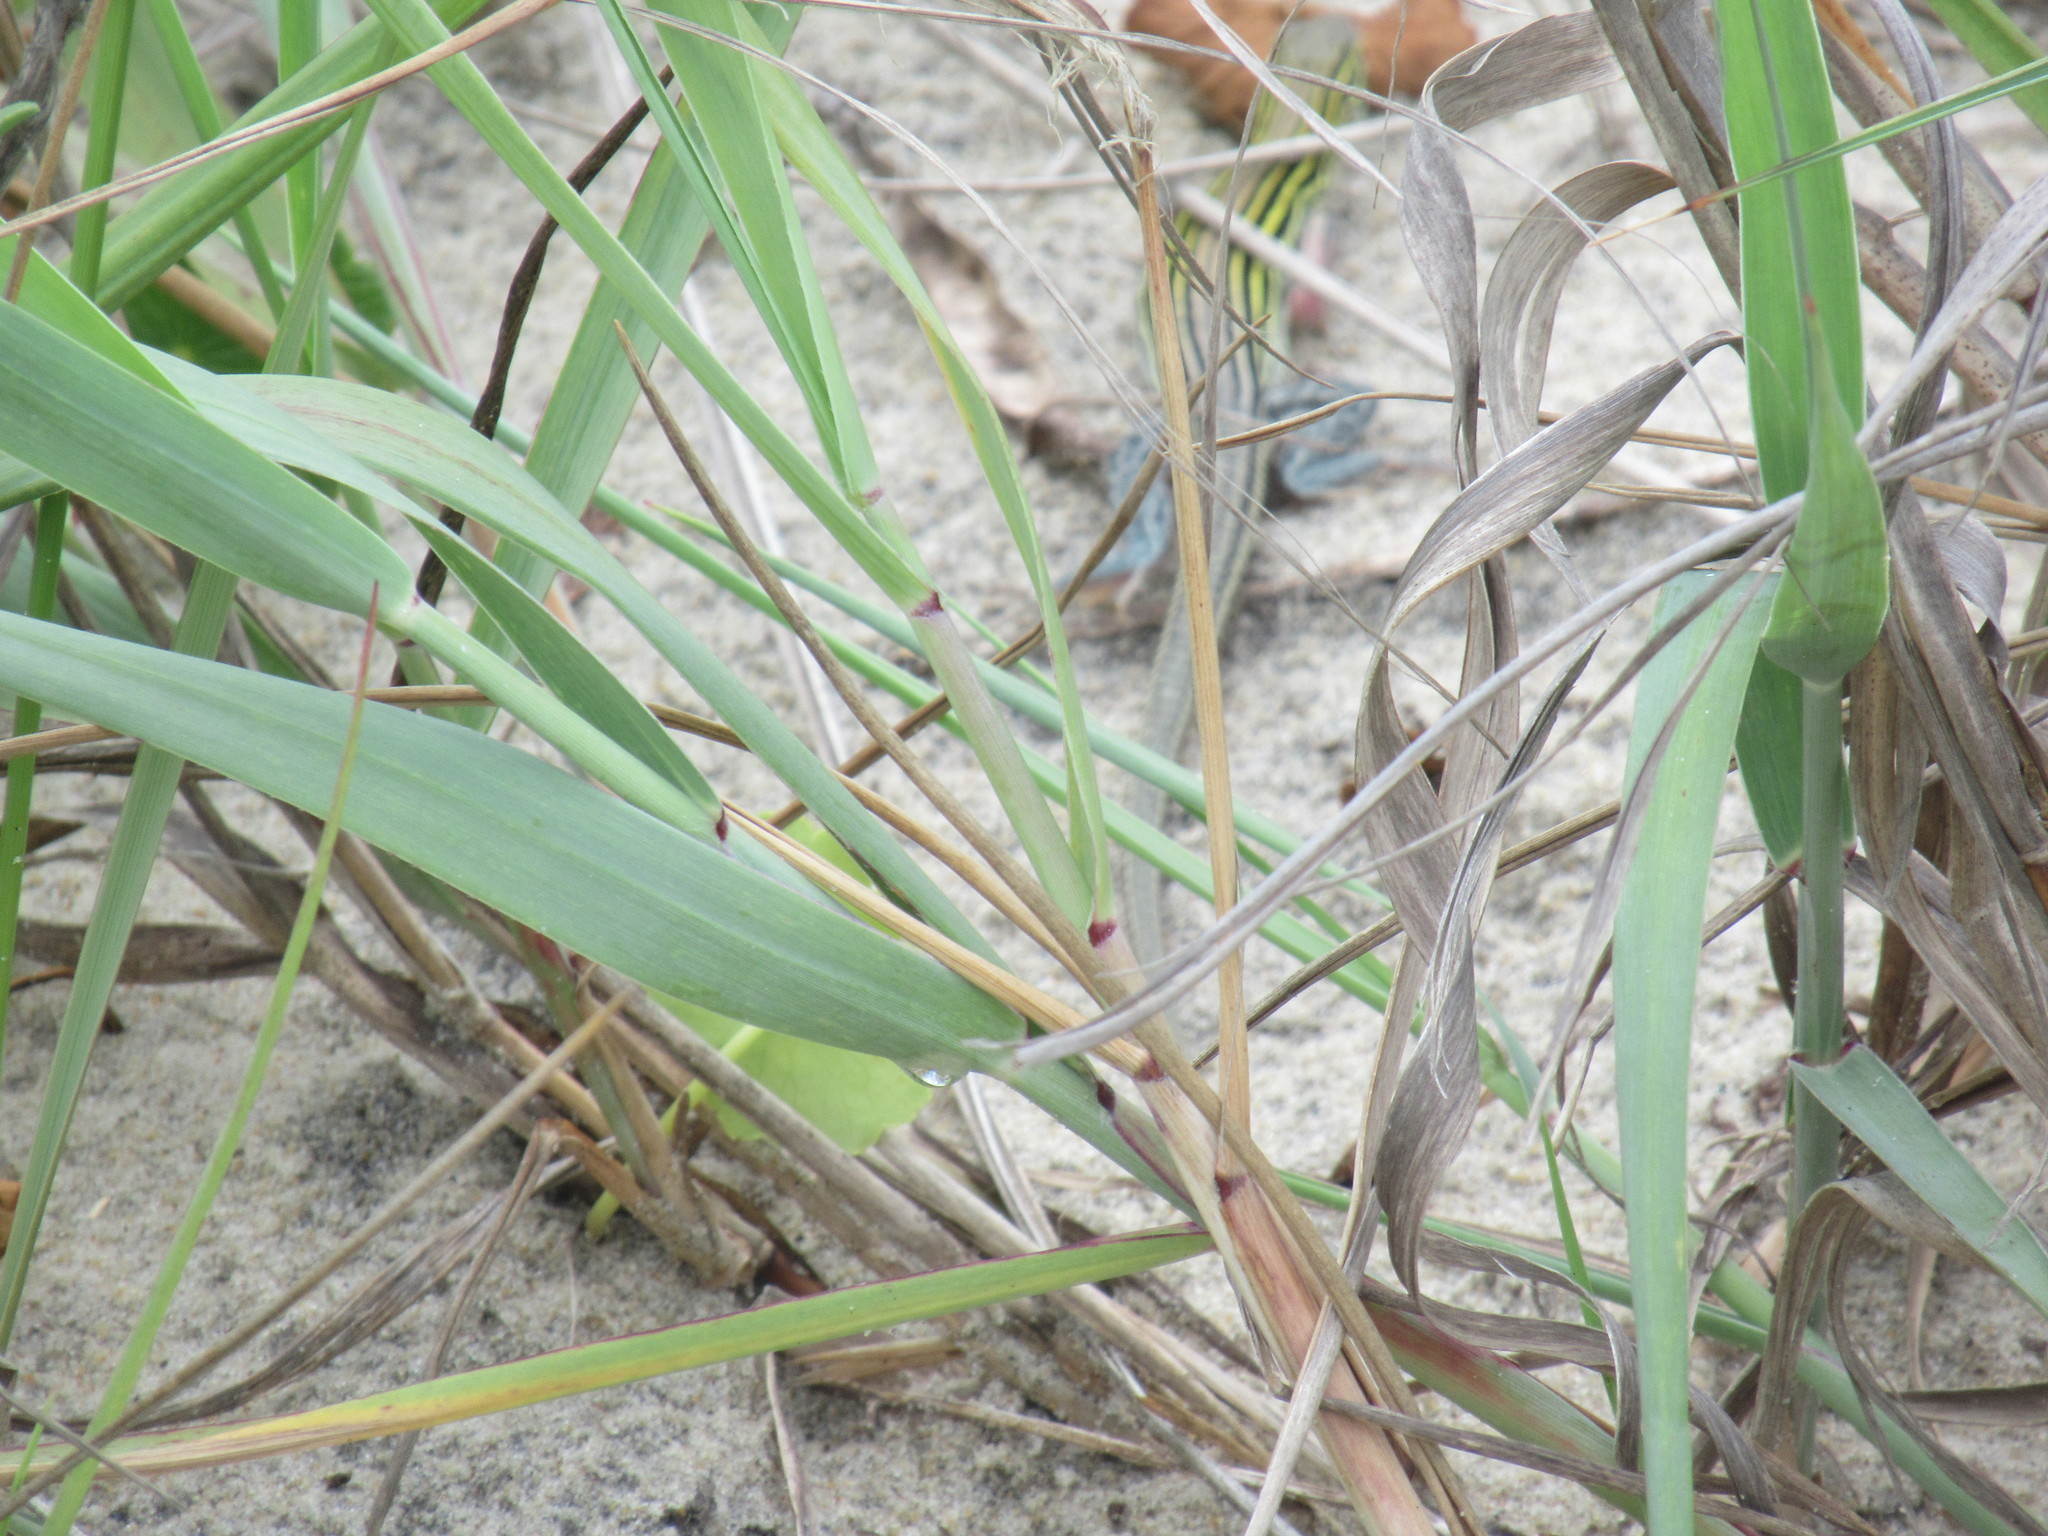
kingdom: Animalia
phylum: Chordata
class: Squamata
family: Teiidae
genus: Aspidoscelis
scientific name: Aspidoscelis sexlineatus
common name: Six-lined racerunner
